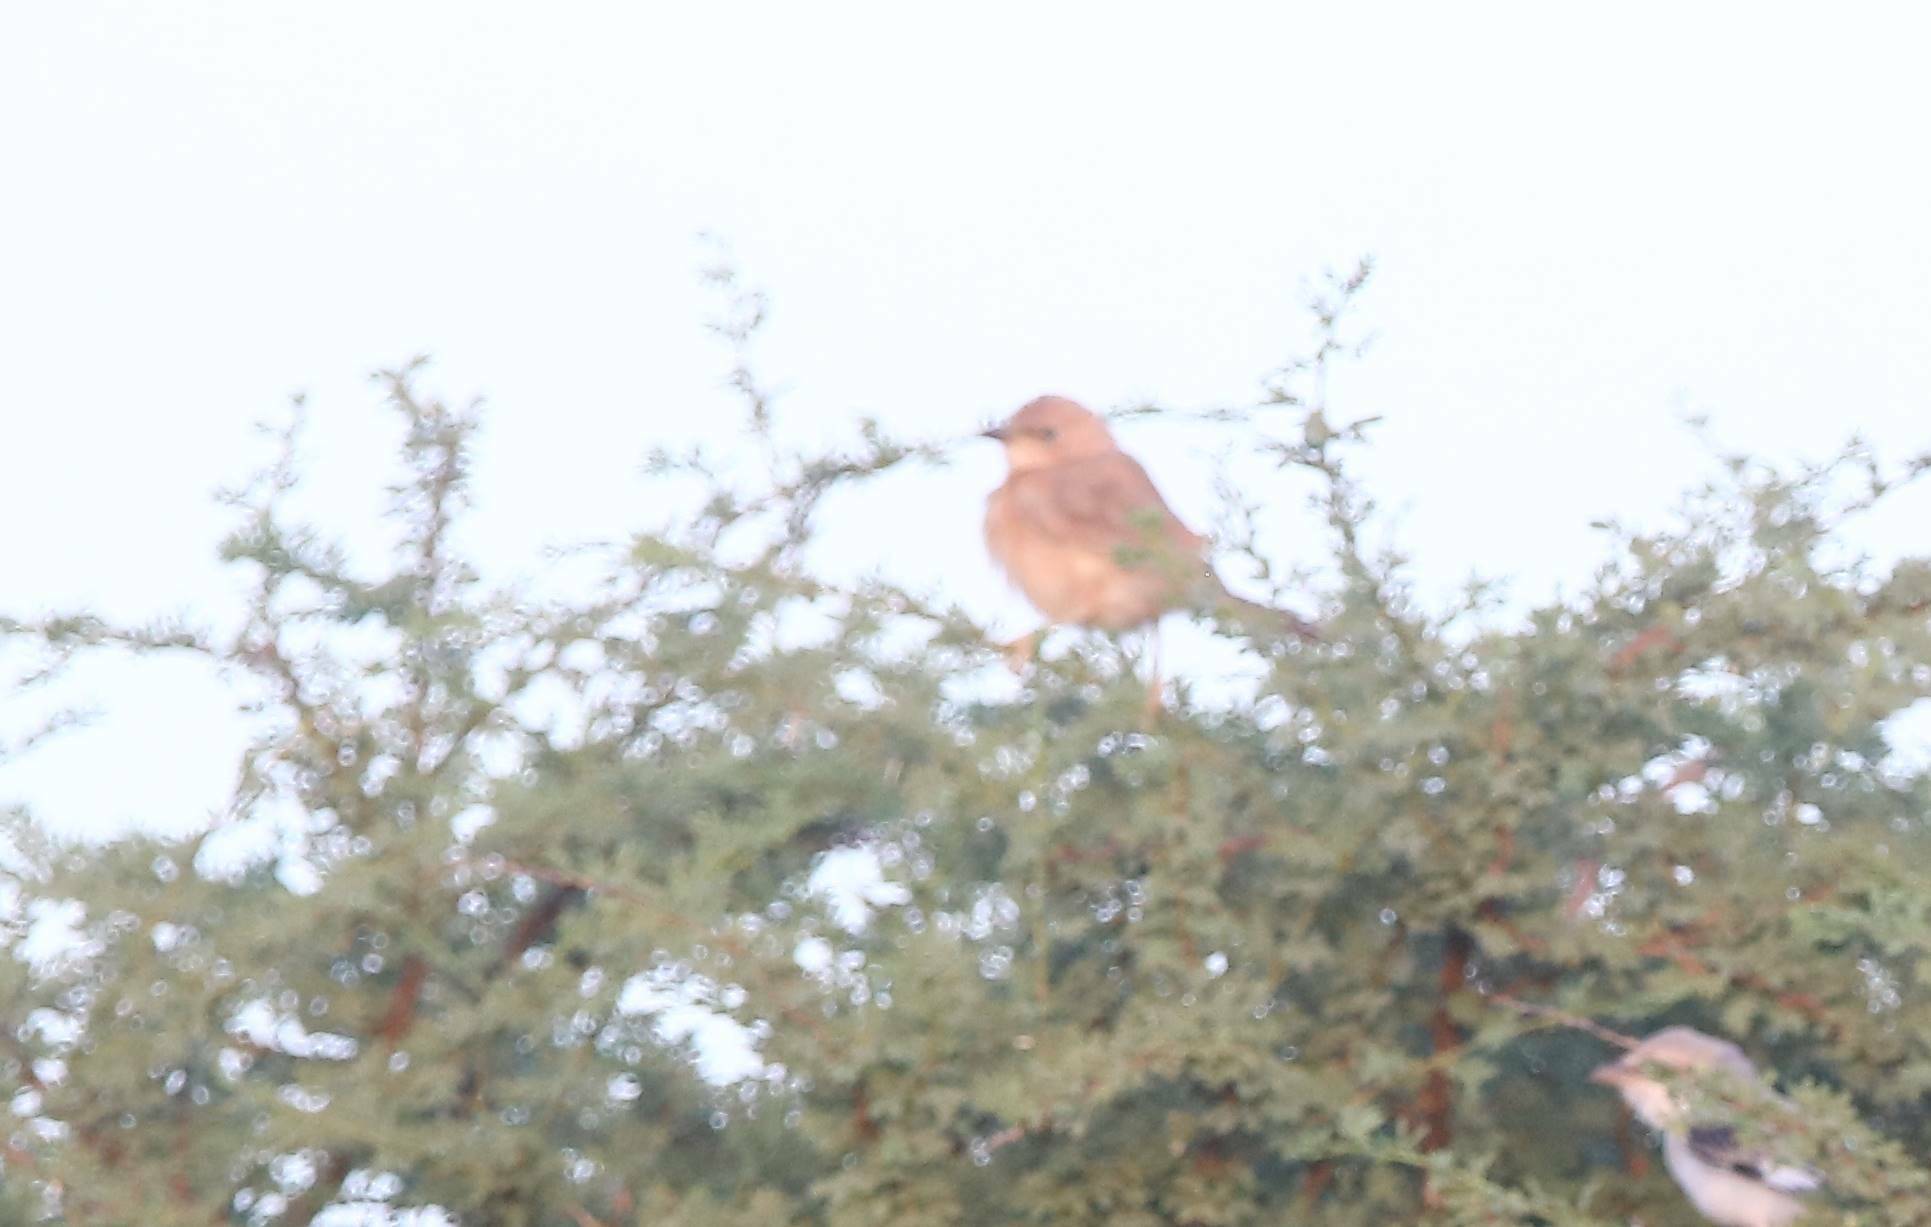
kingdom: Animalia
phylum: Chordata
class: Aves
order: Passeriformes
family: Leiothrichidae
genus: Turdoides
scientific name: Turdoides fulva
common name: Fulvous babbler
